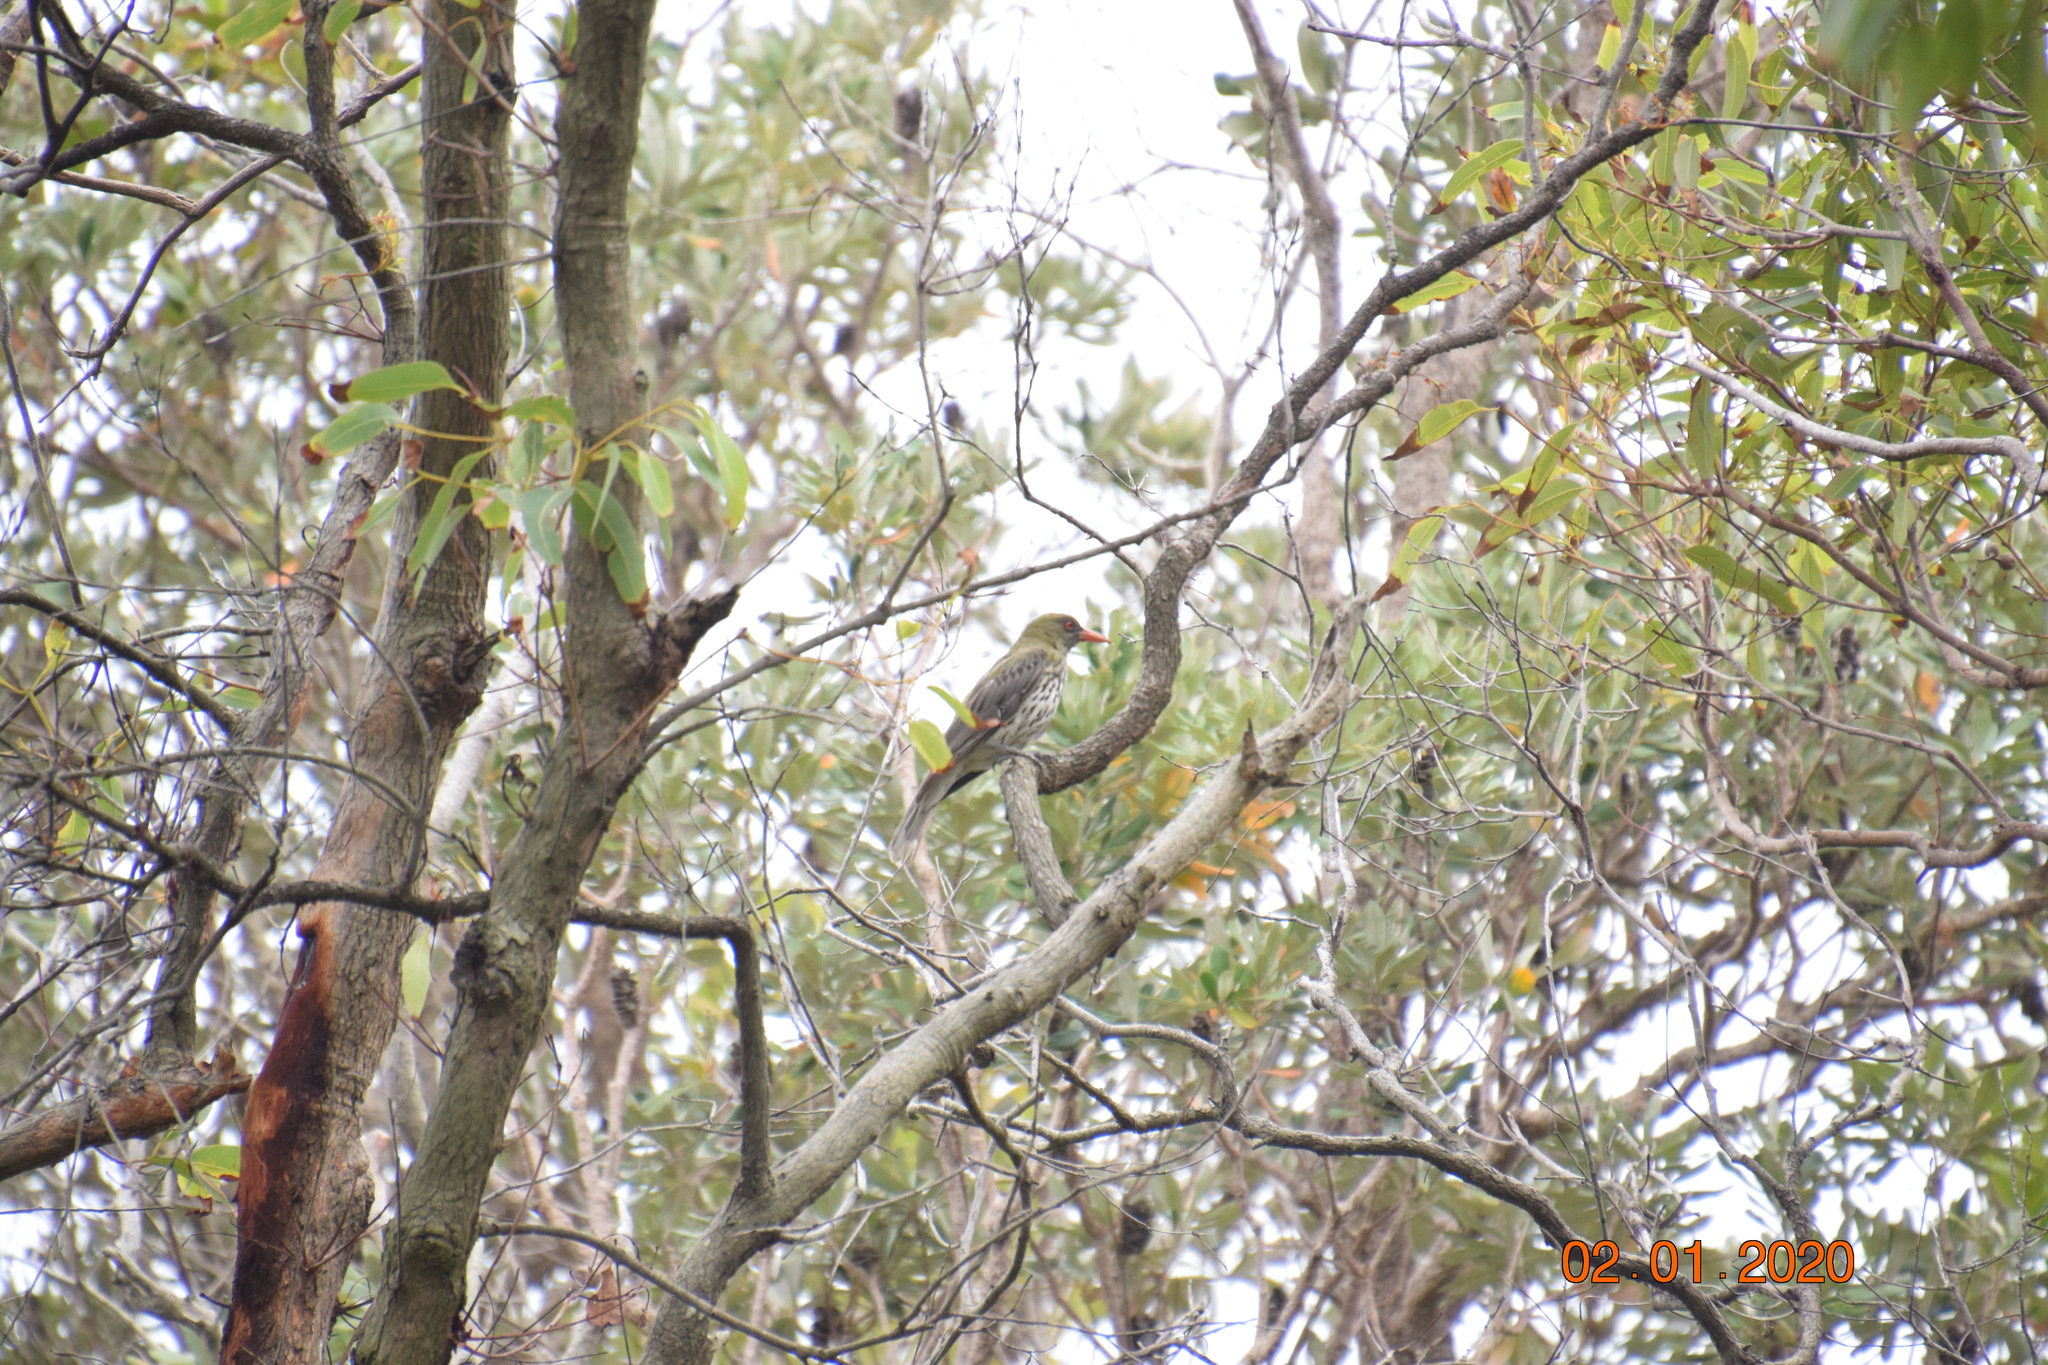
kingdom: Animalia
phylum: Chordata
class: Aves
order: Passeriformes
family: Oriolidae
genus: Oriolus
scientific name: Oriolus sagittatus
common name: Olive-backed oriole
